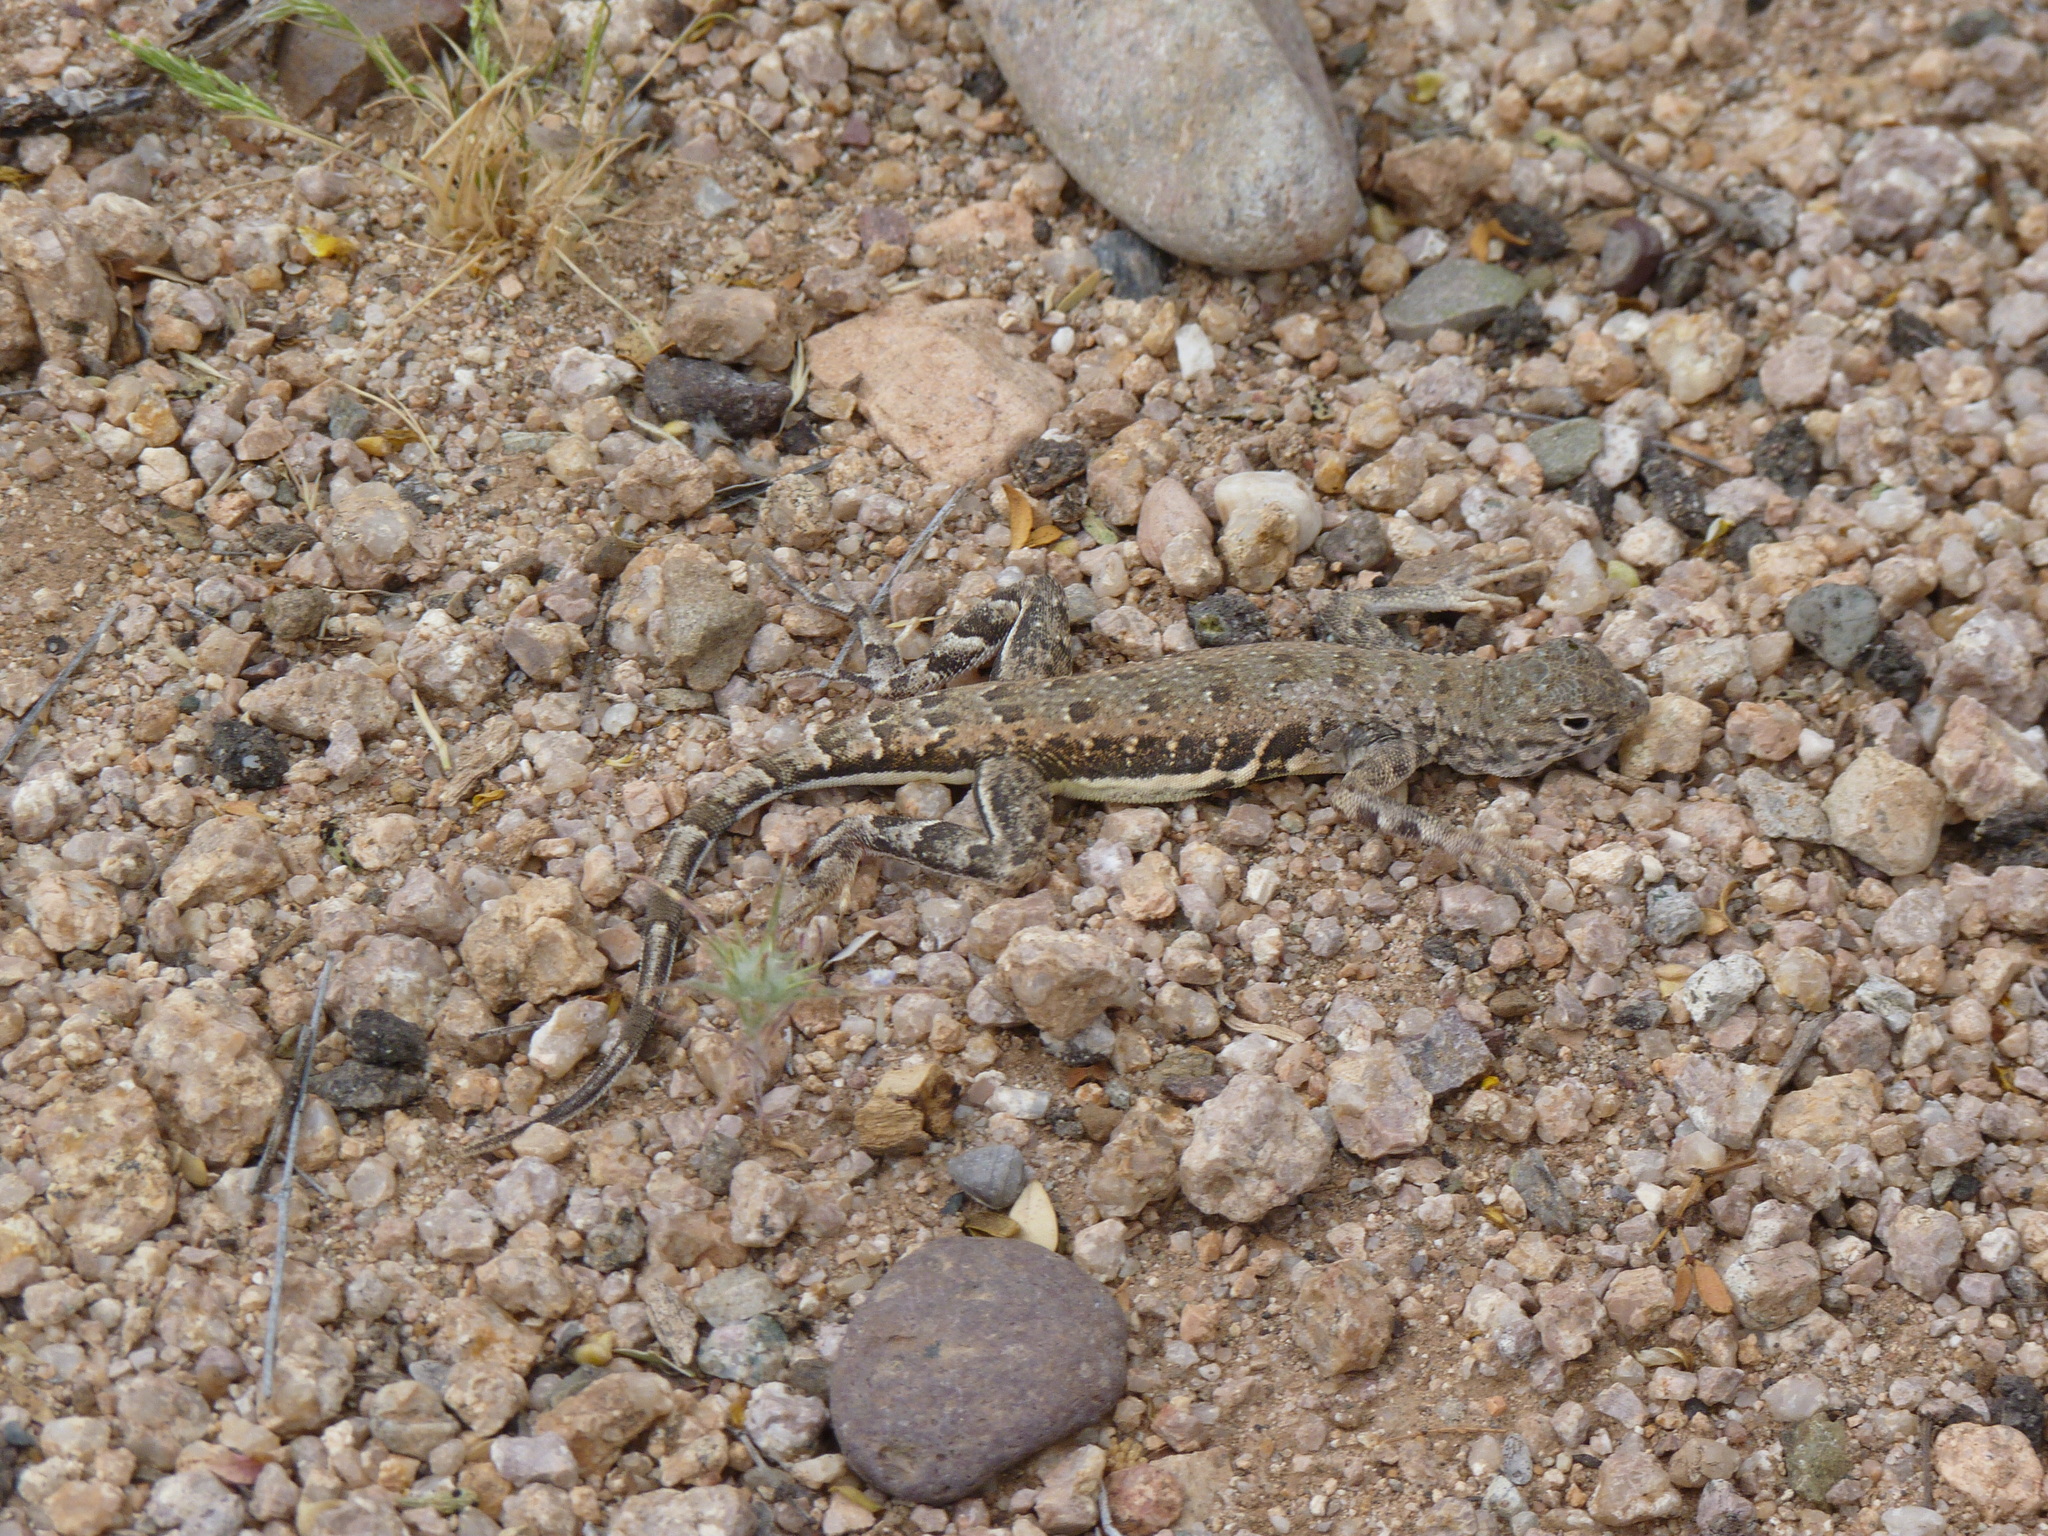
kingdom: Animalia
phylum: Chordata
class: Squamata
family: Phrynosomatidae
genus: Callisaurus
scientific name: Callisaurus draconoides
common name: Zebra-tailed lizard
